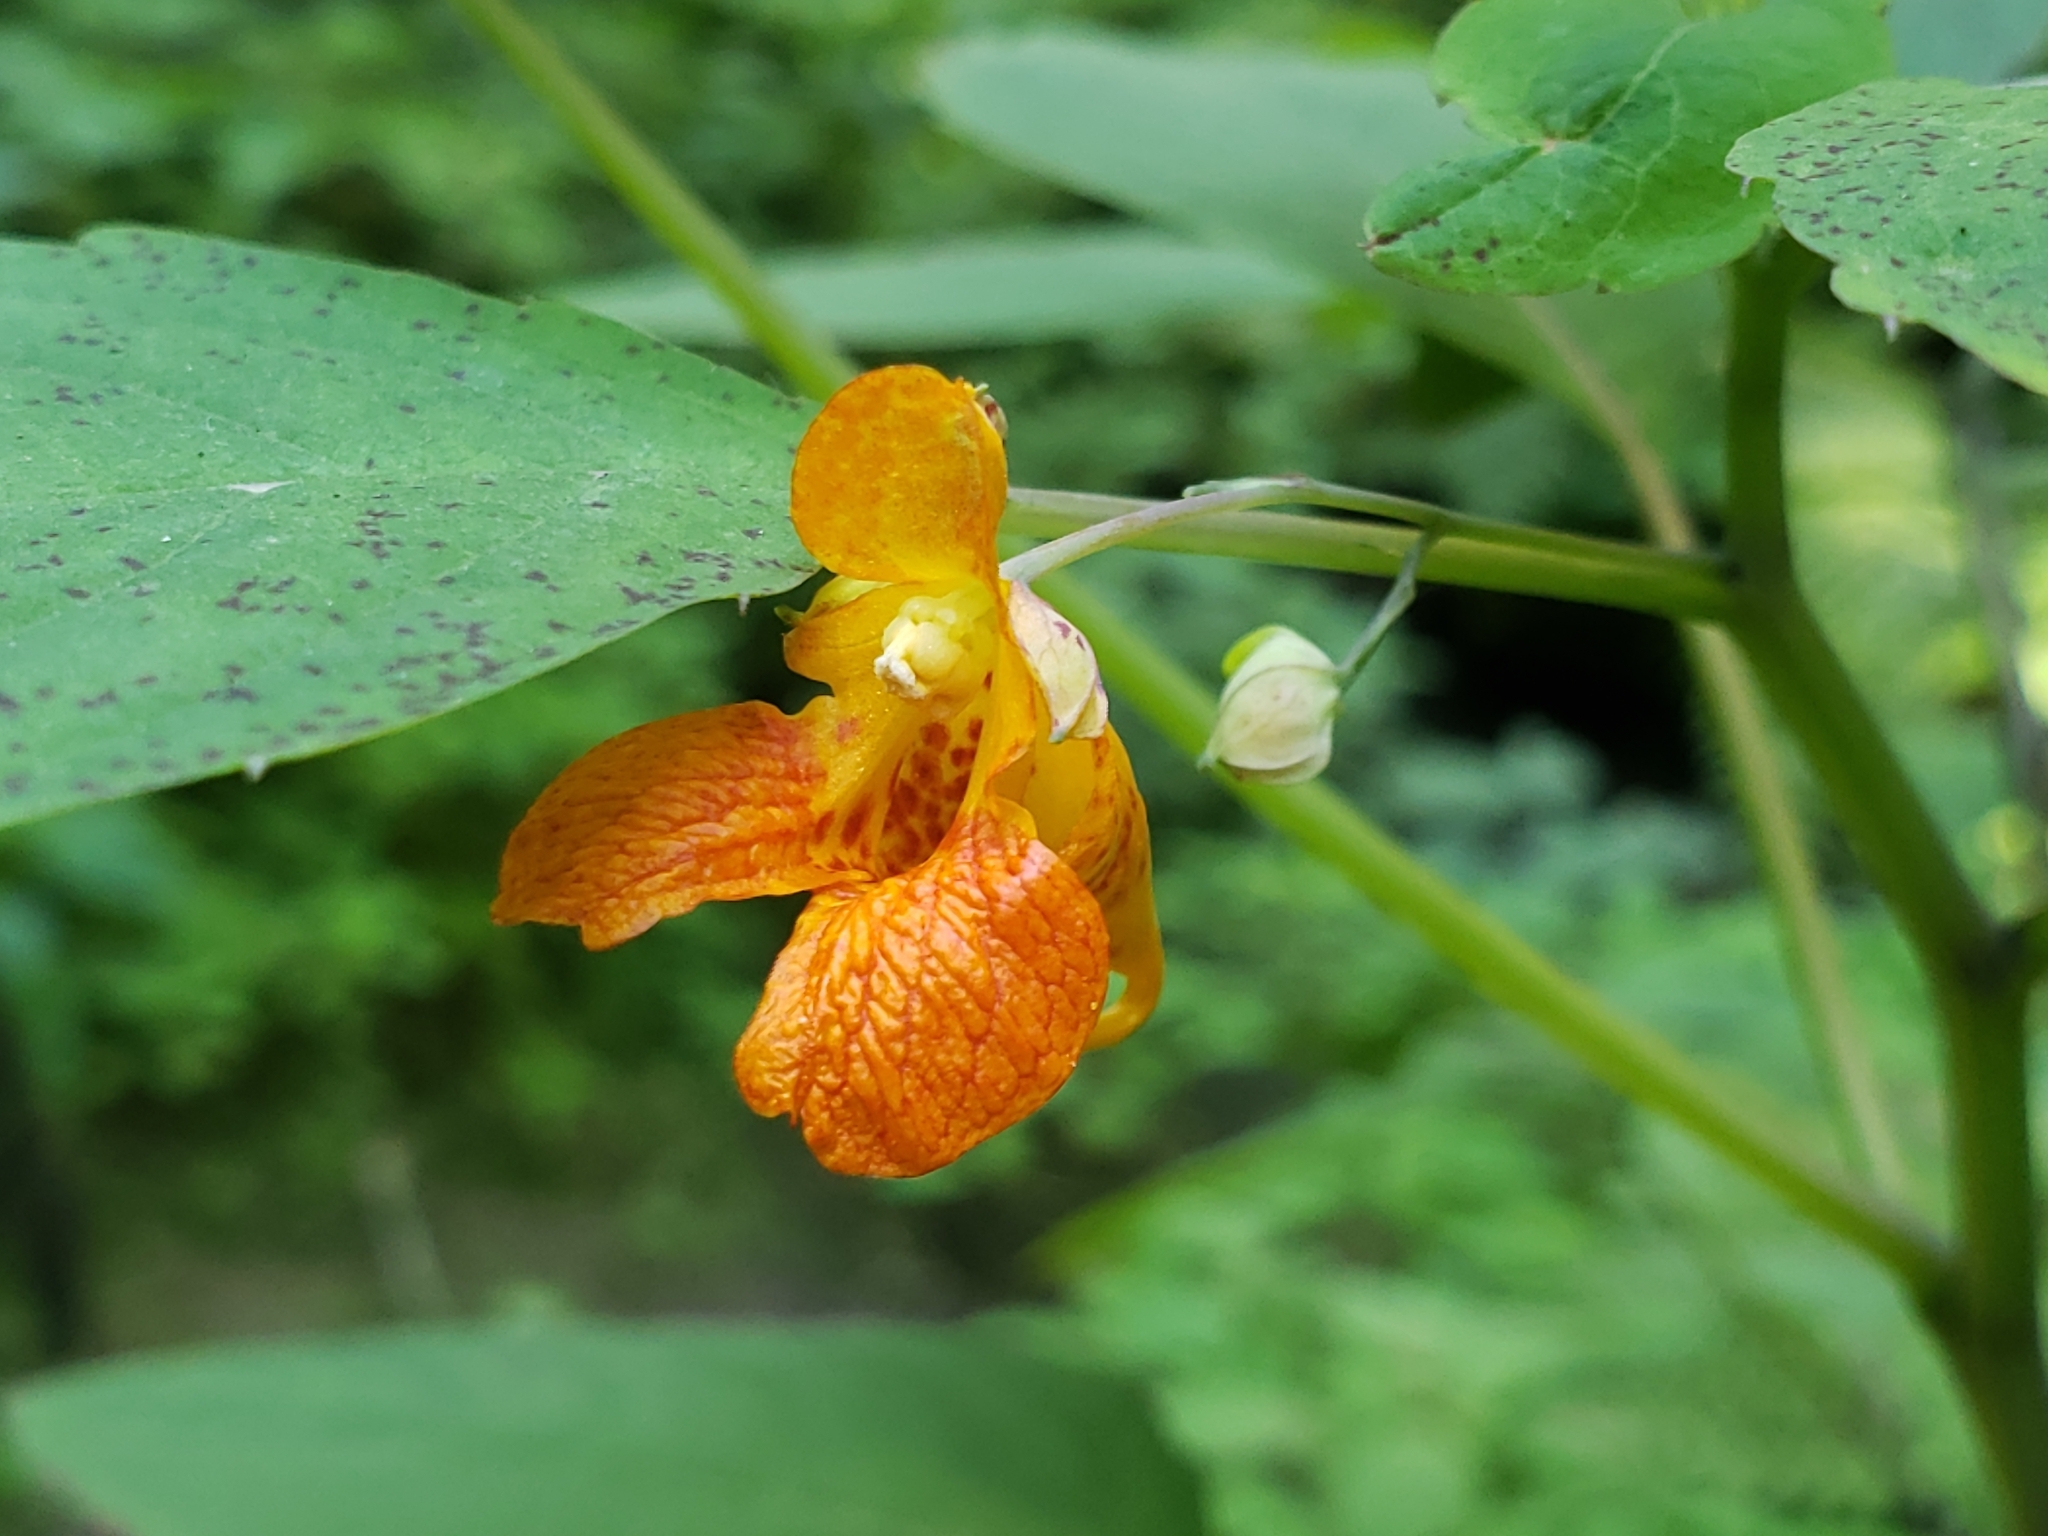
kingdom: Plantae
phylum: Tracheophyta
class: Magnoliopsida
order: Ericales
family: Balsaminaceae
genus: Impatiens
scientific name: Impatiens capensis
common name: Orange balsam
